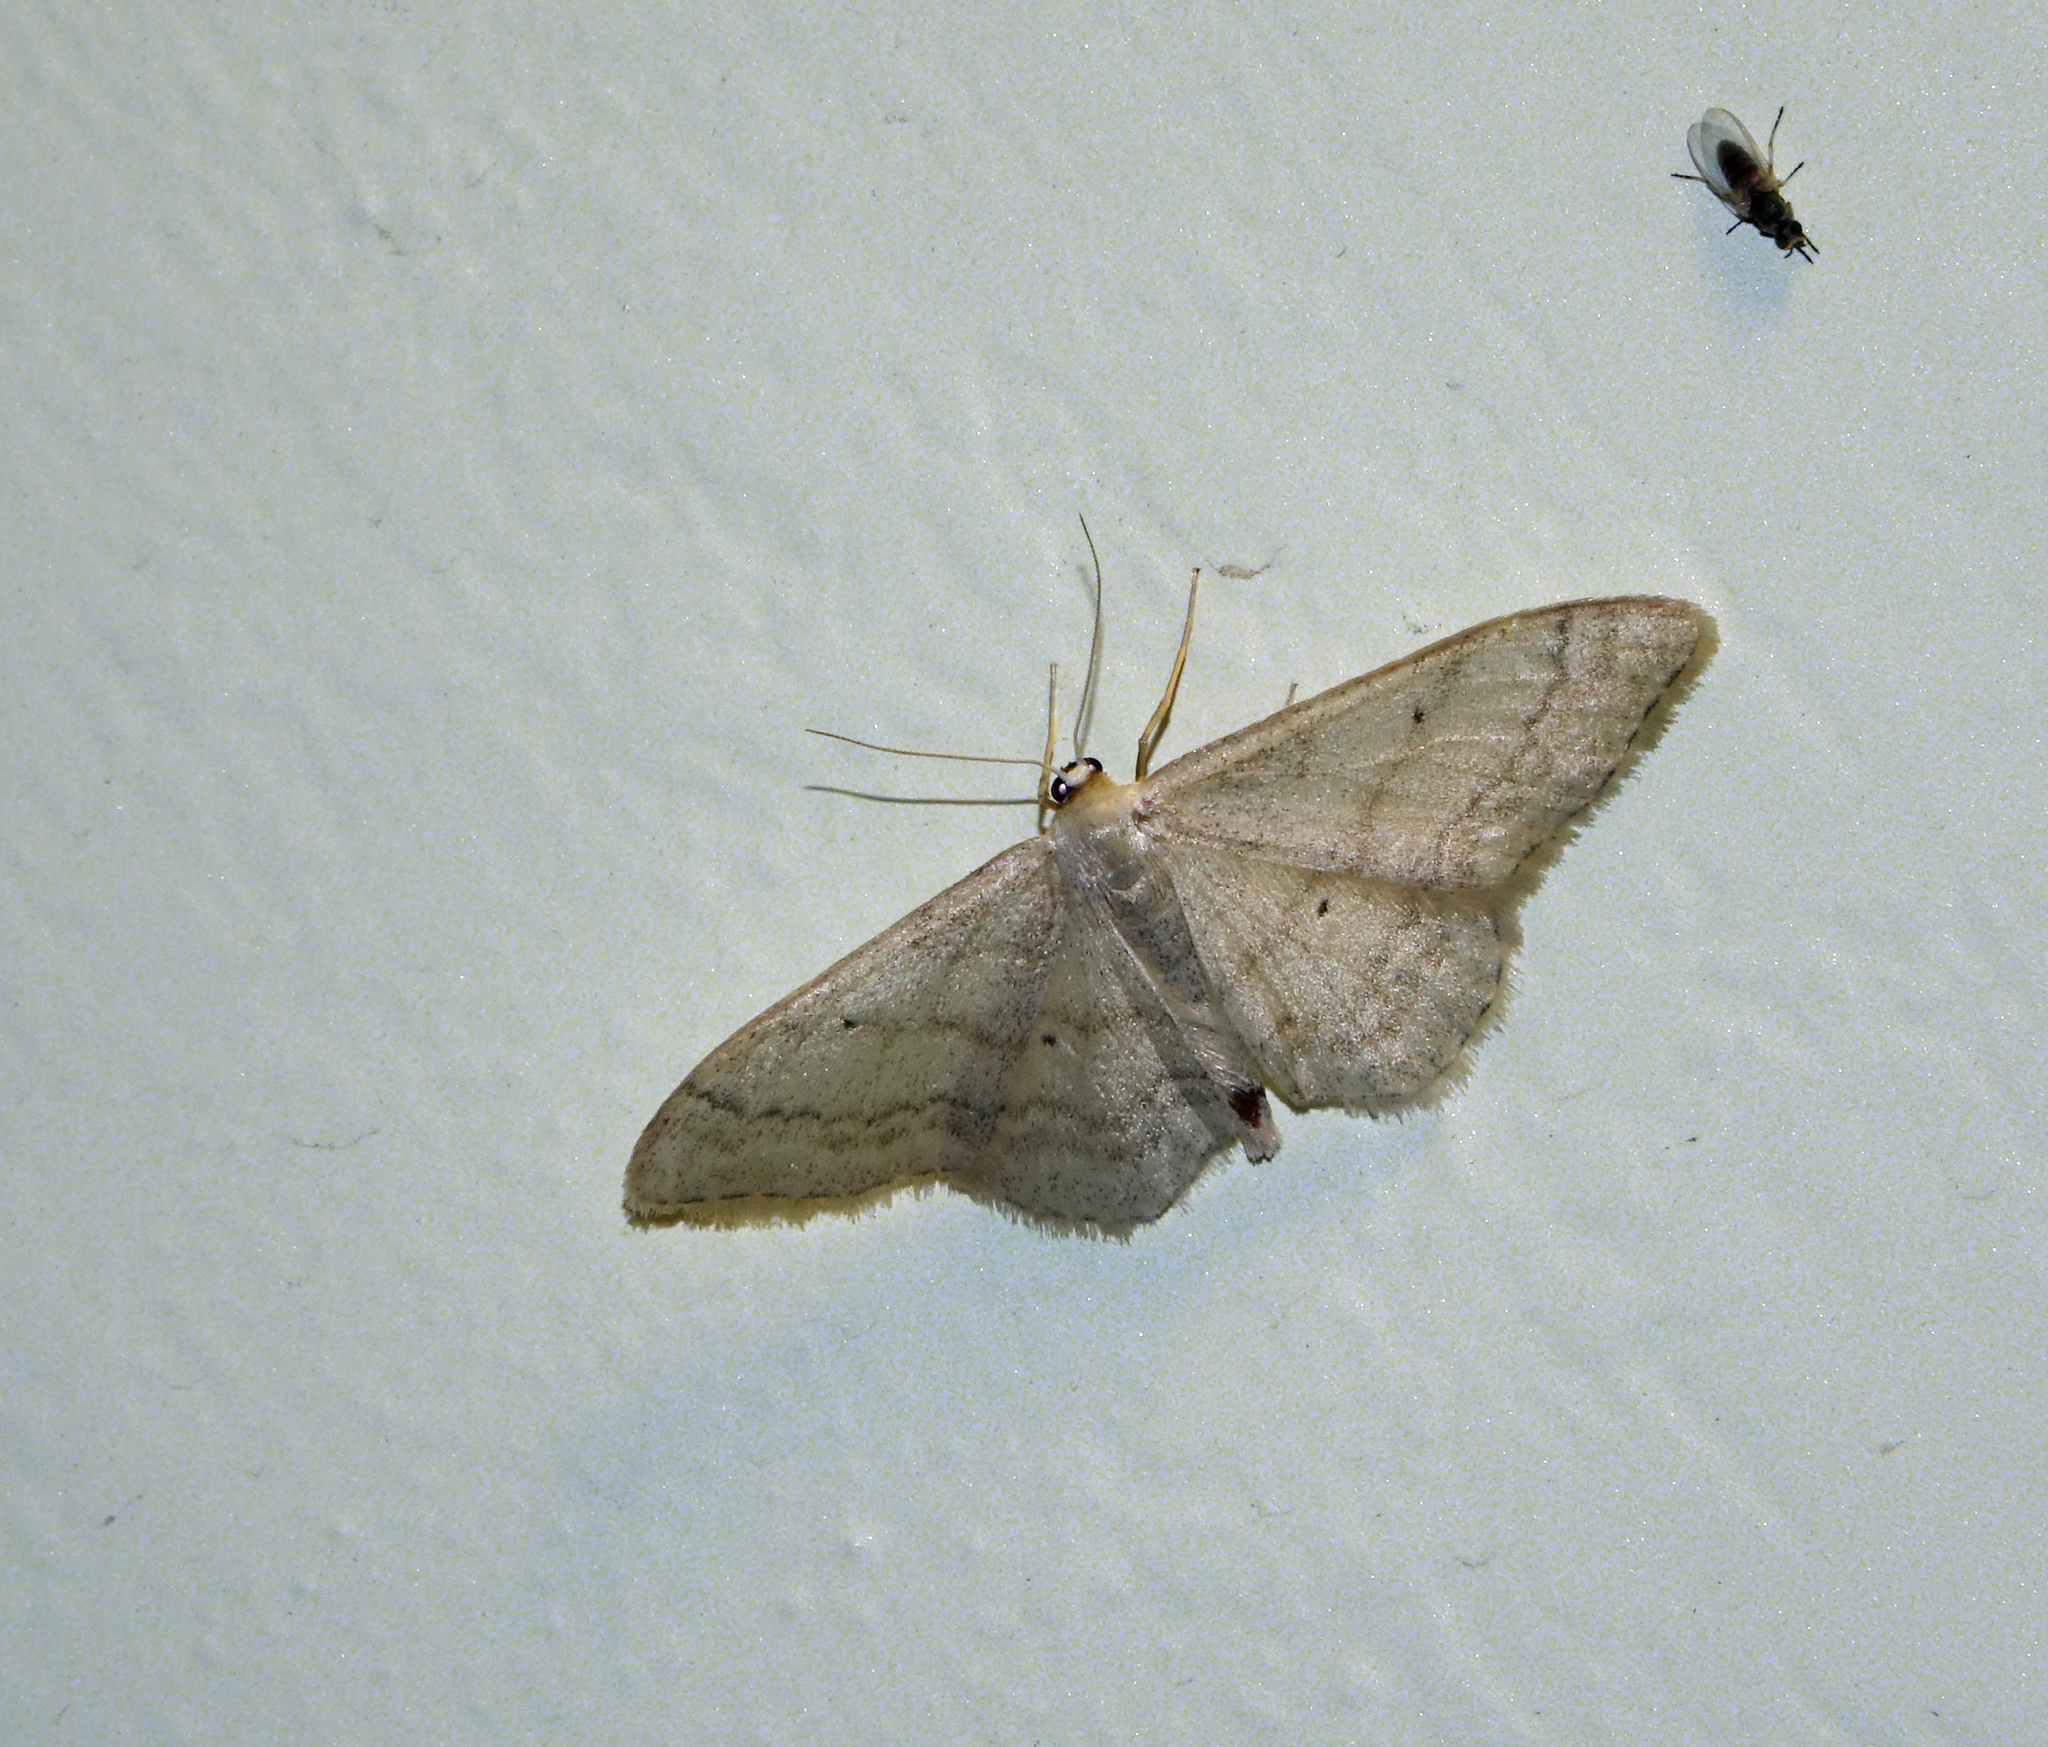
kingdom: Animalia
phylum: Arthropoda
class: Insecta
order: Lepidoptera
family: Geometridae
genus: Idaea
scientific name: Idaea aversata
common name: Riband wave
